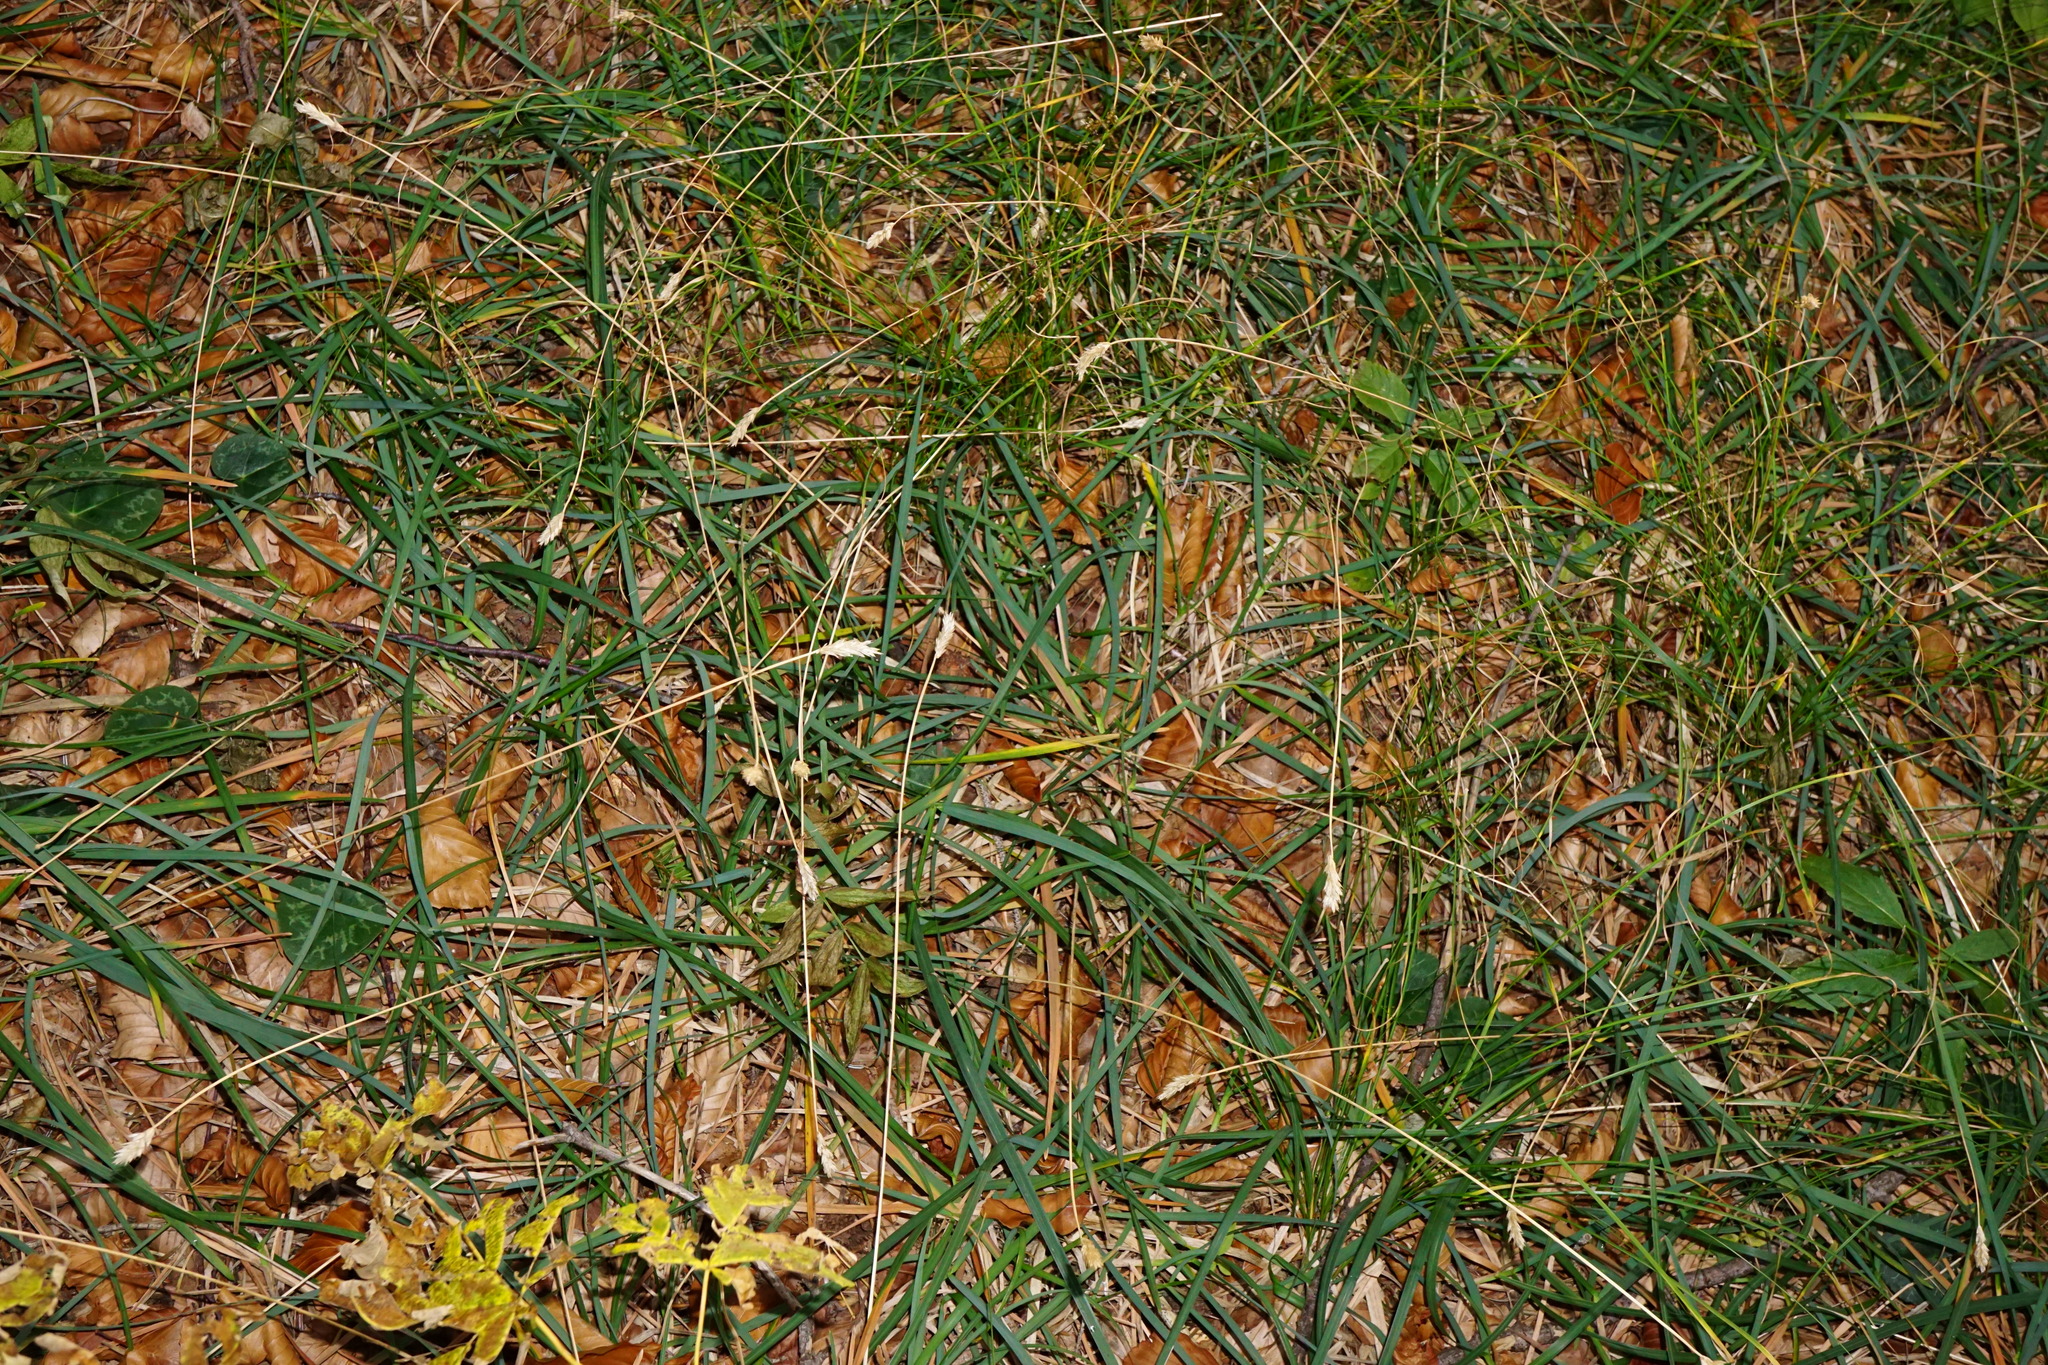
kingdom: Plantae
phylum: Tracheophyta
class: Liliopsida
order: Poales
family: Poaceae
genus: Sesleria
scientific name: Sesleria caerulea
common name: Blue moor-grass
